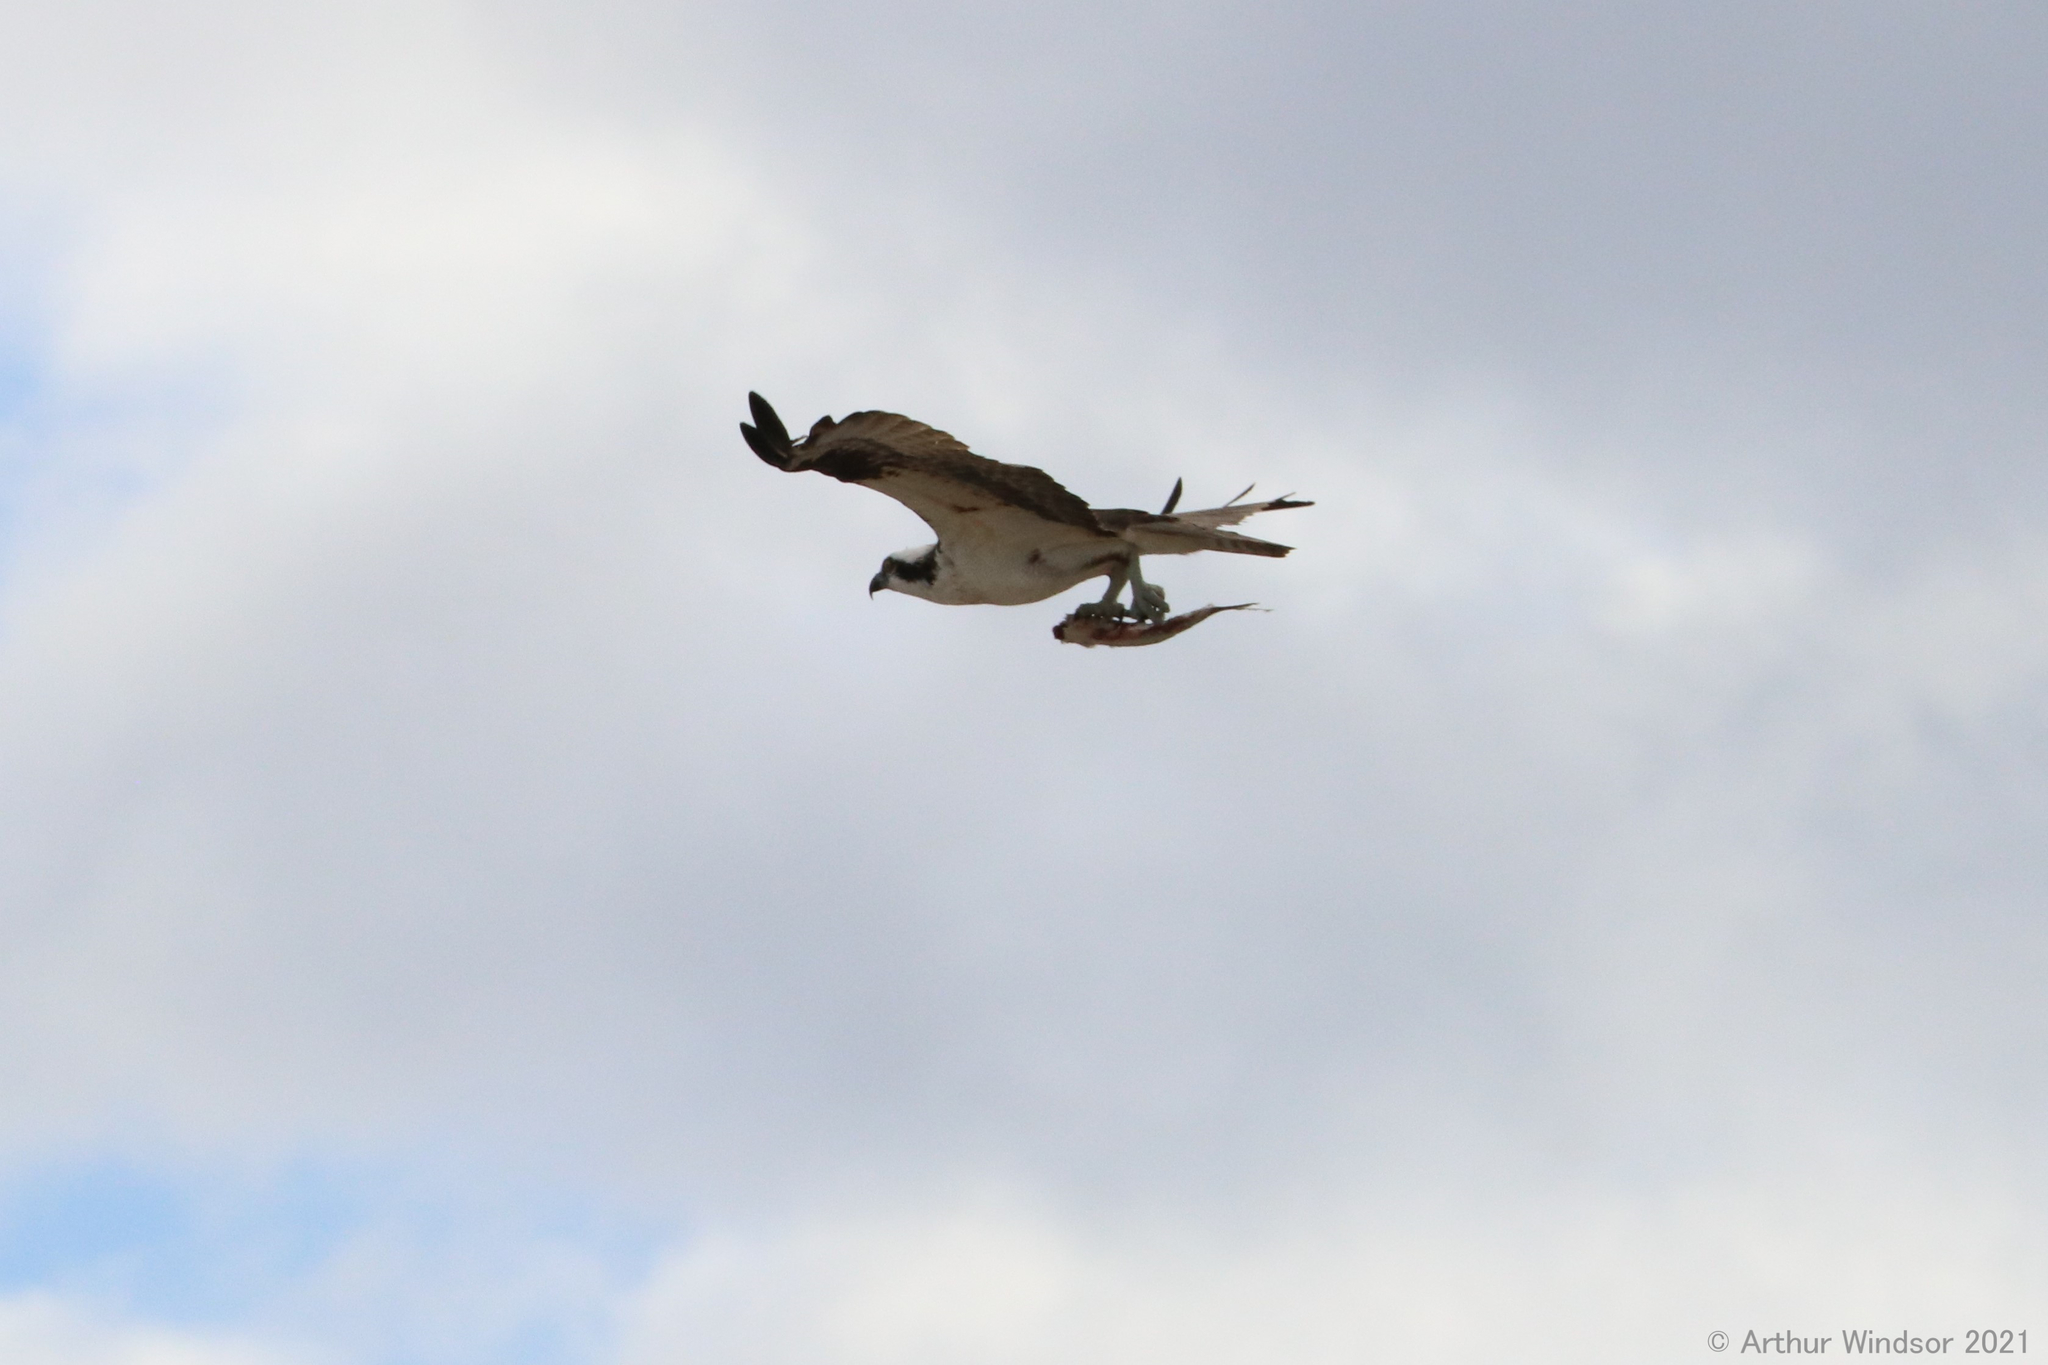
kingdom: Animalia
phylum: Chordata
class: Aves
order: Accipitriformes
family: Pandionidae
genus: Pandion
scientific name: Pandion haliaetus
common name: Osprey
